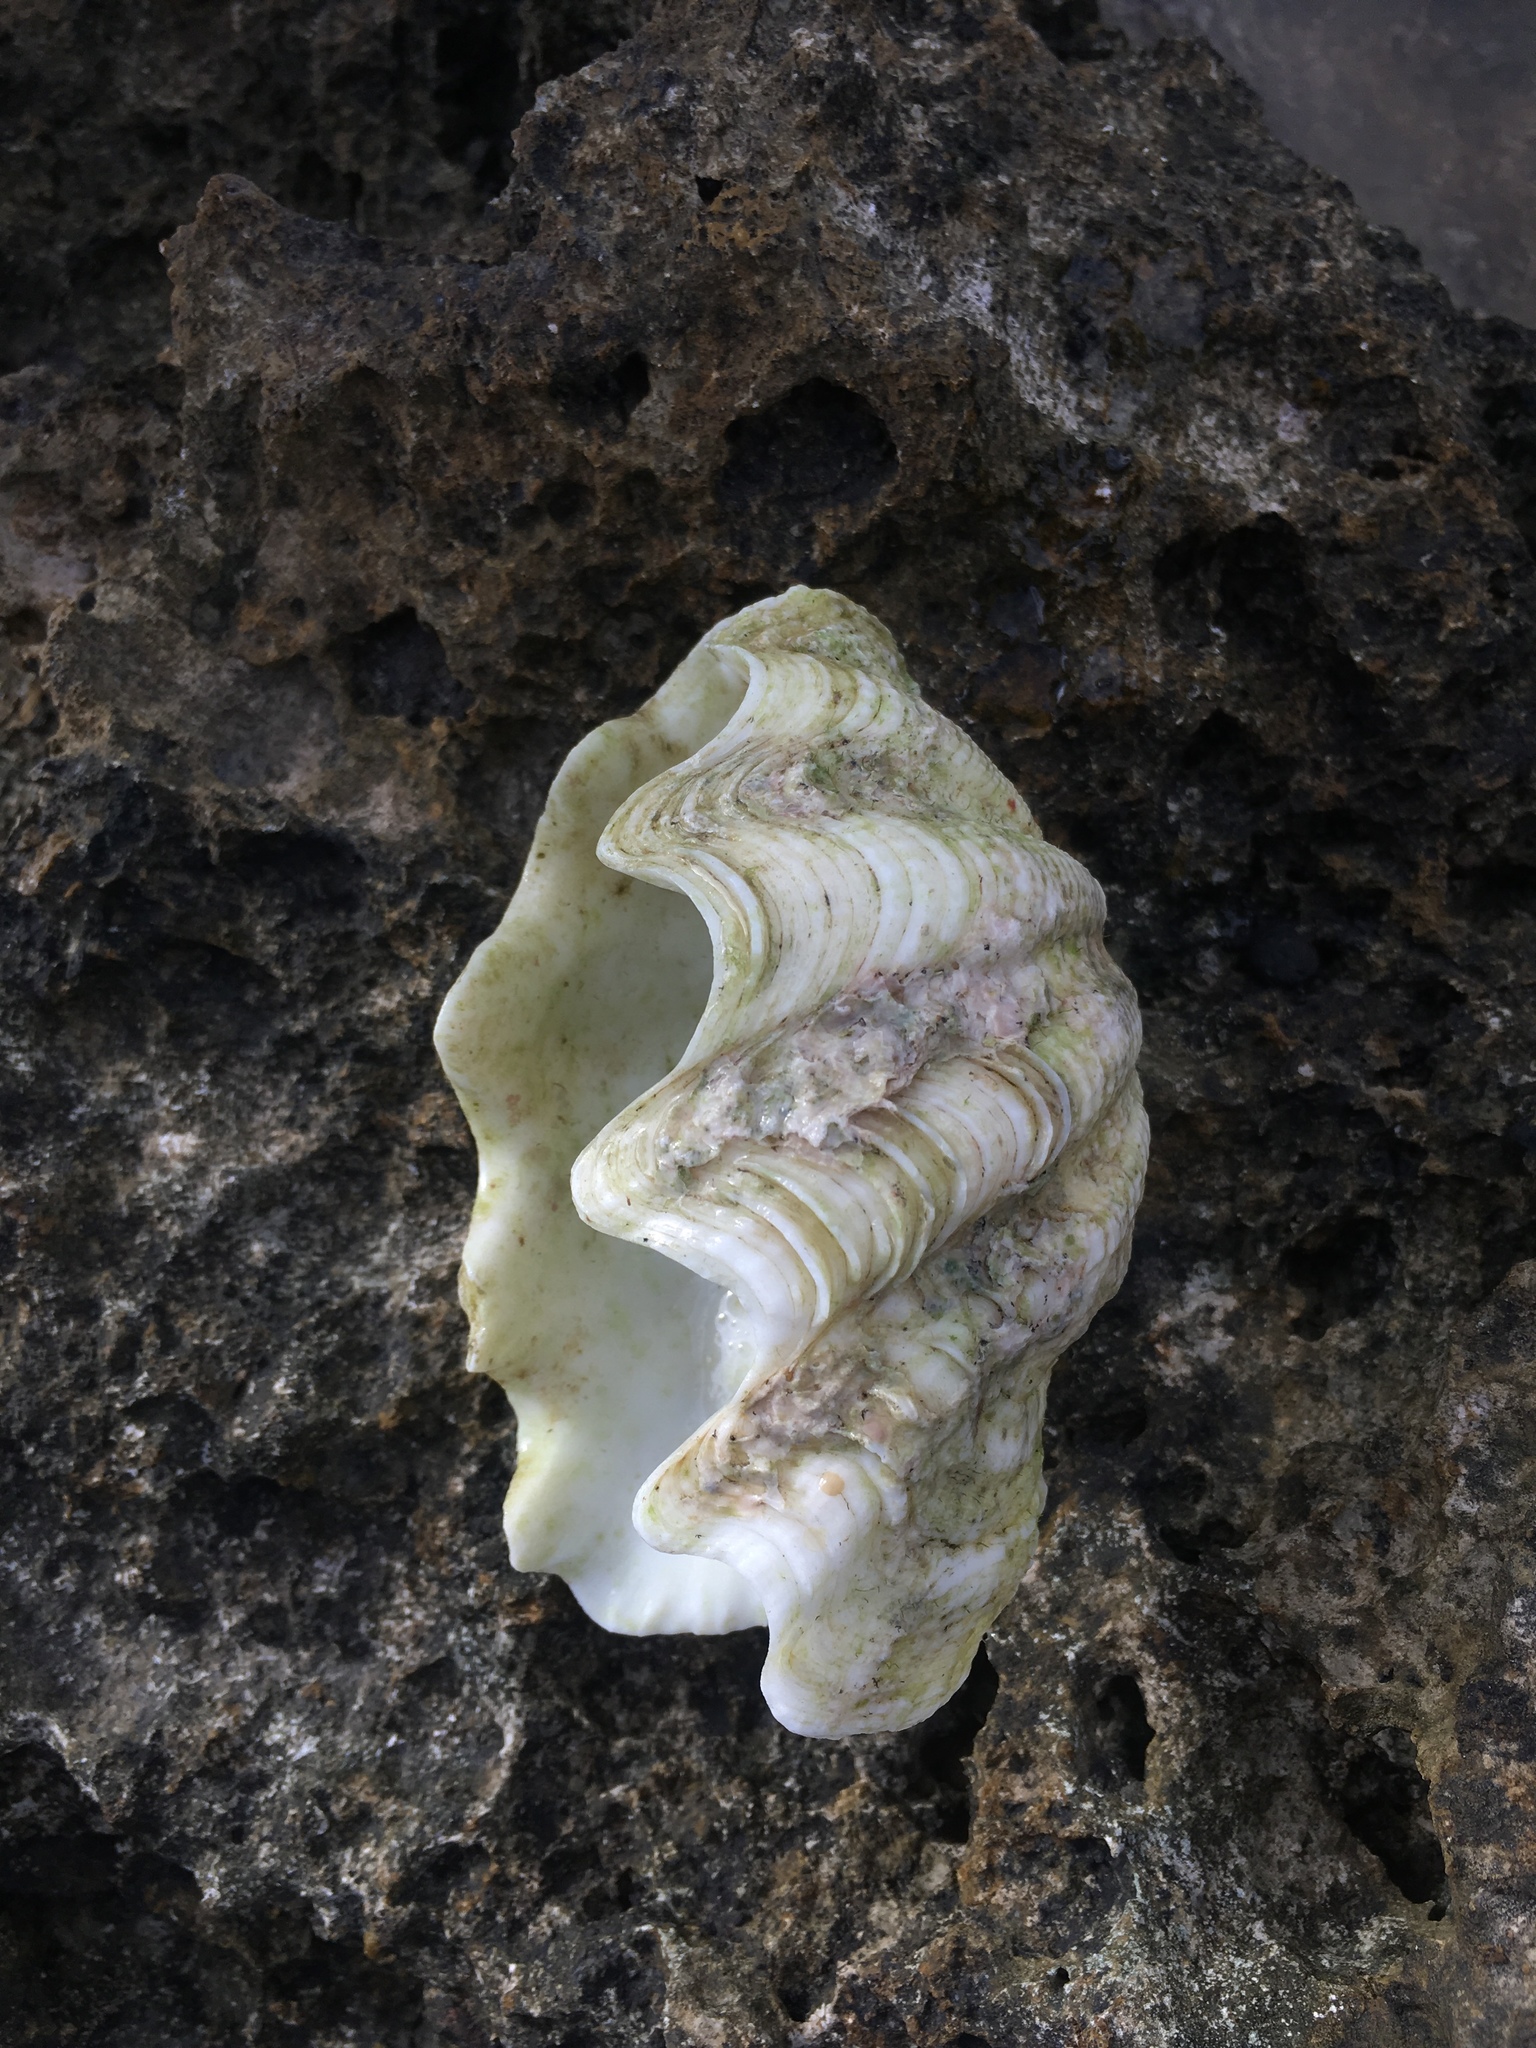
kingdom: Animalia
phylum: Mollusca
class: Bivalvia
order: Cardiida
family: Cardiidae
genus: Tridacna
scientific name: Tridacna maxima
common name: Small giant clam
